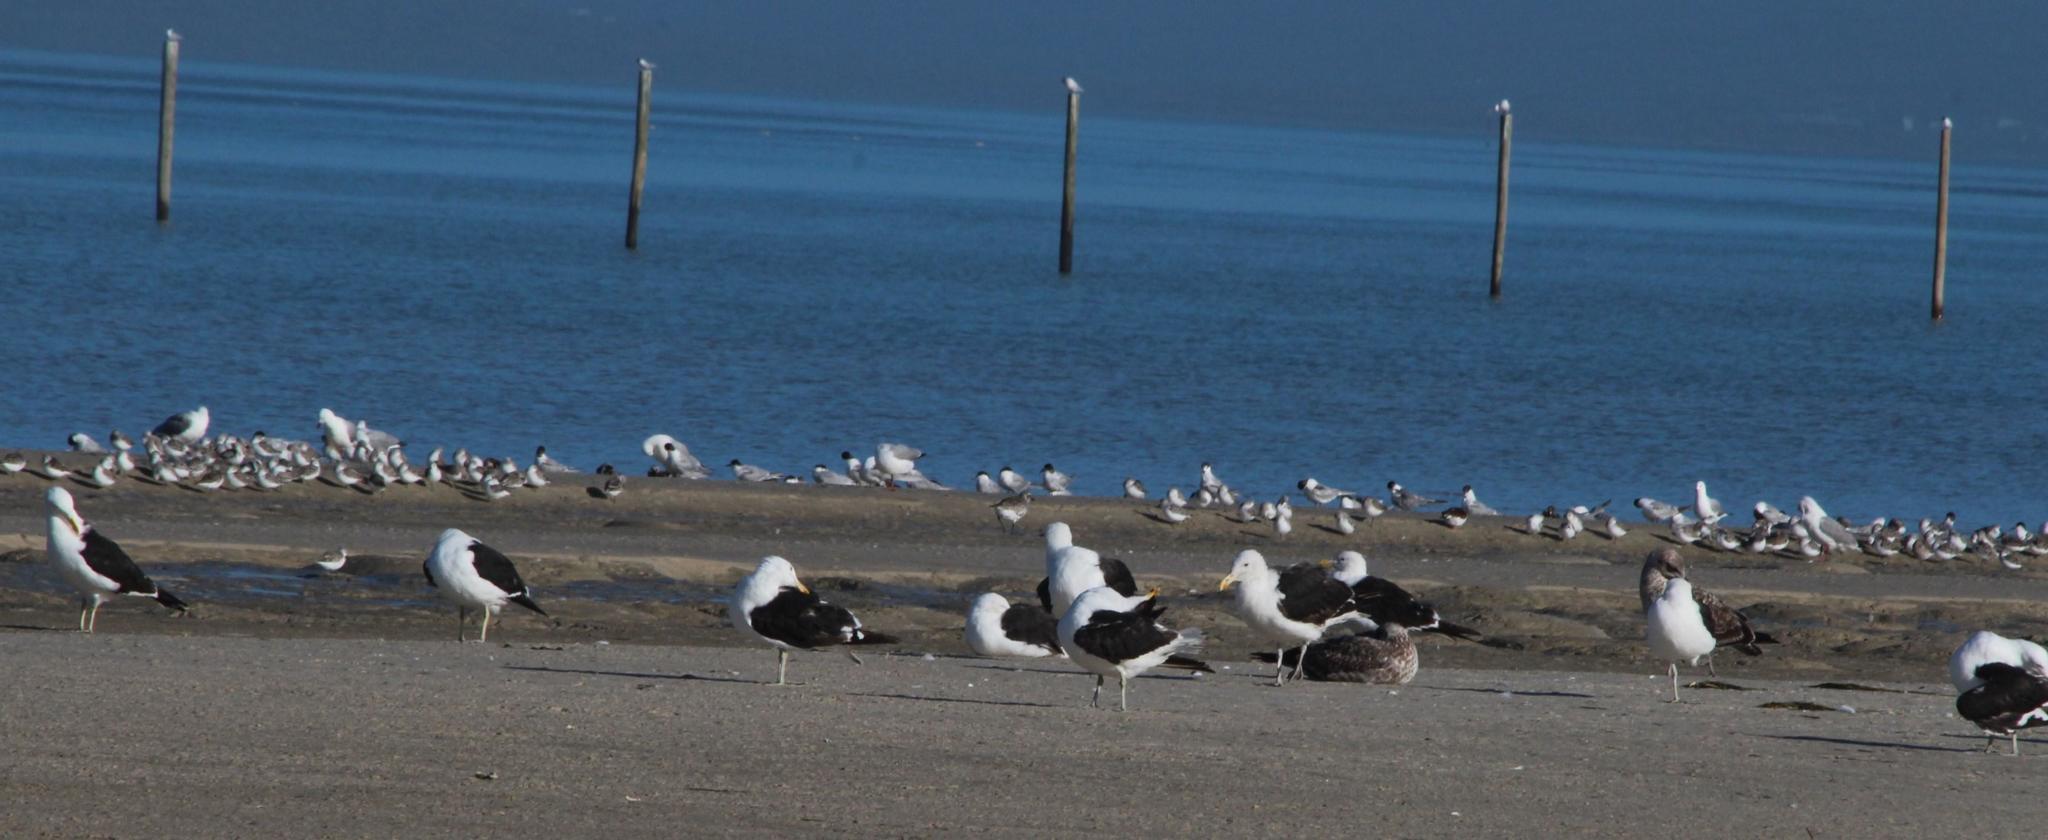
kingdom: Animalia
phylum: Chordata
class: Aves
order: Charadriiformes
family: Laridae
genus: Larus
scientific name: Larus dominicanus
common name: Kelp gull
